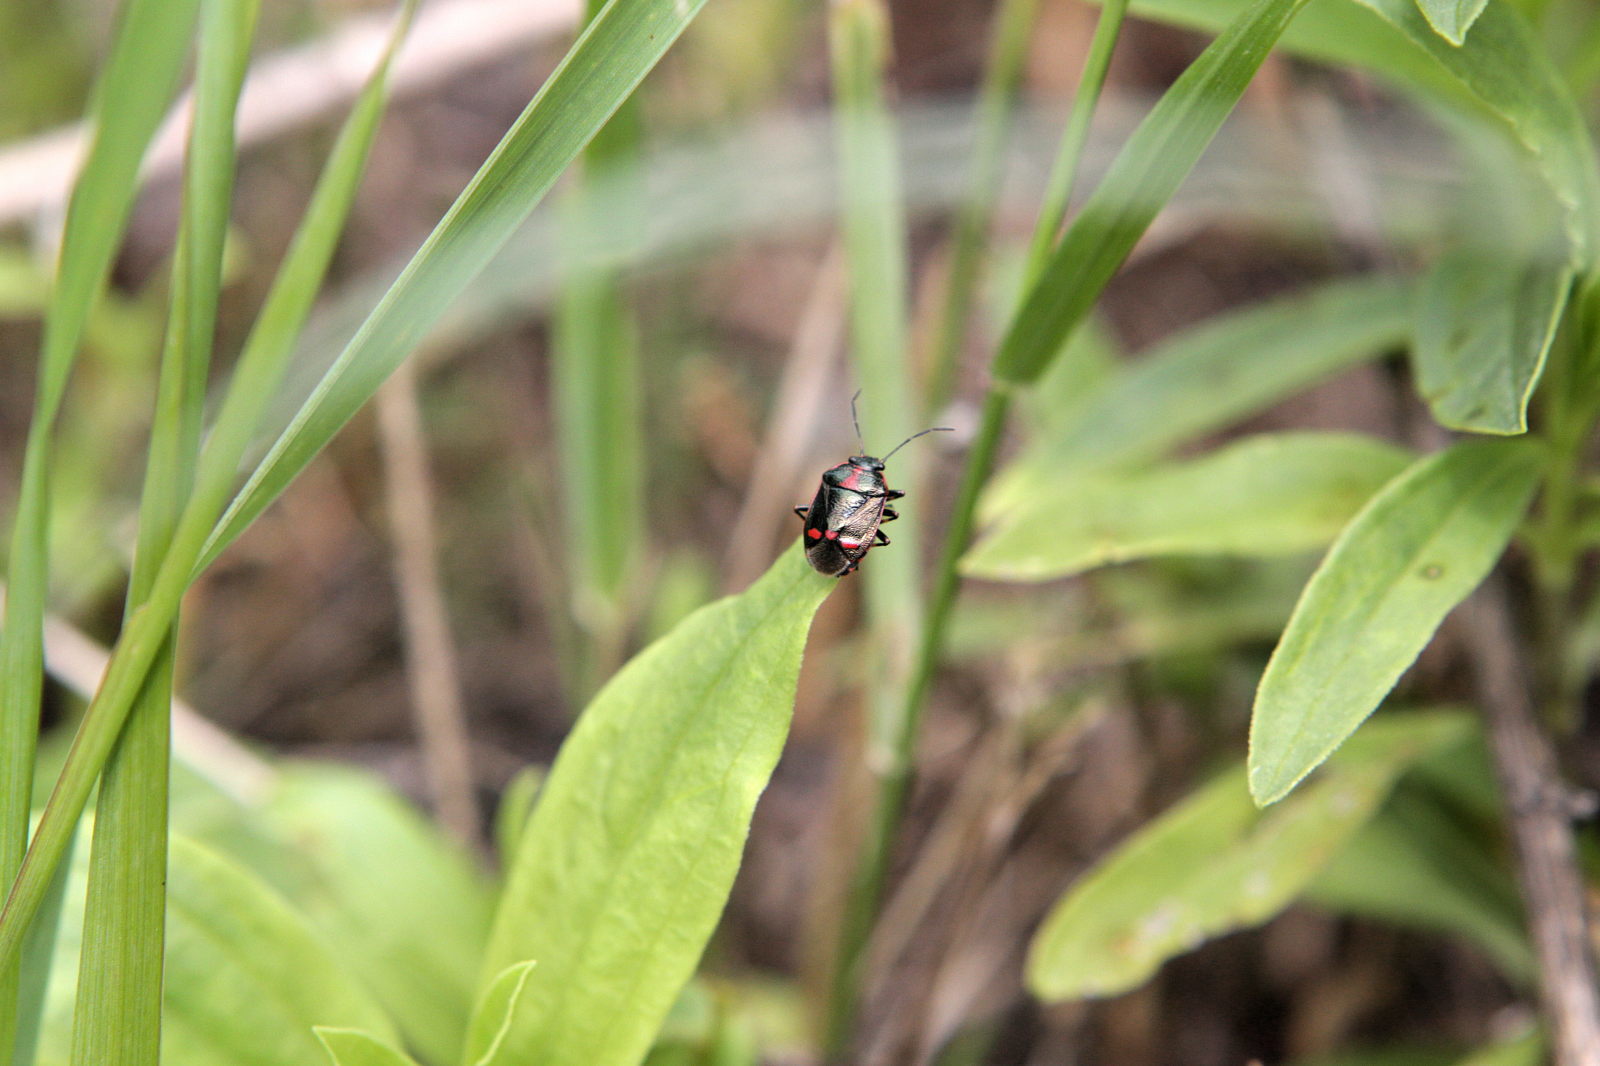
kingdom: Animalia
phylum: Arthropoda
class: Insecta
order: Hemiptera
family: Pentatomidae
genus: Eurydema
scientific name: Eurydema oleracea
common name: Cabbage bug
